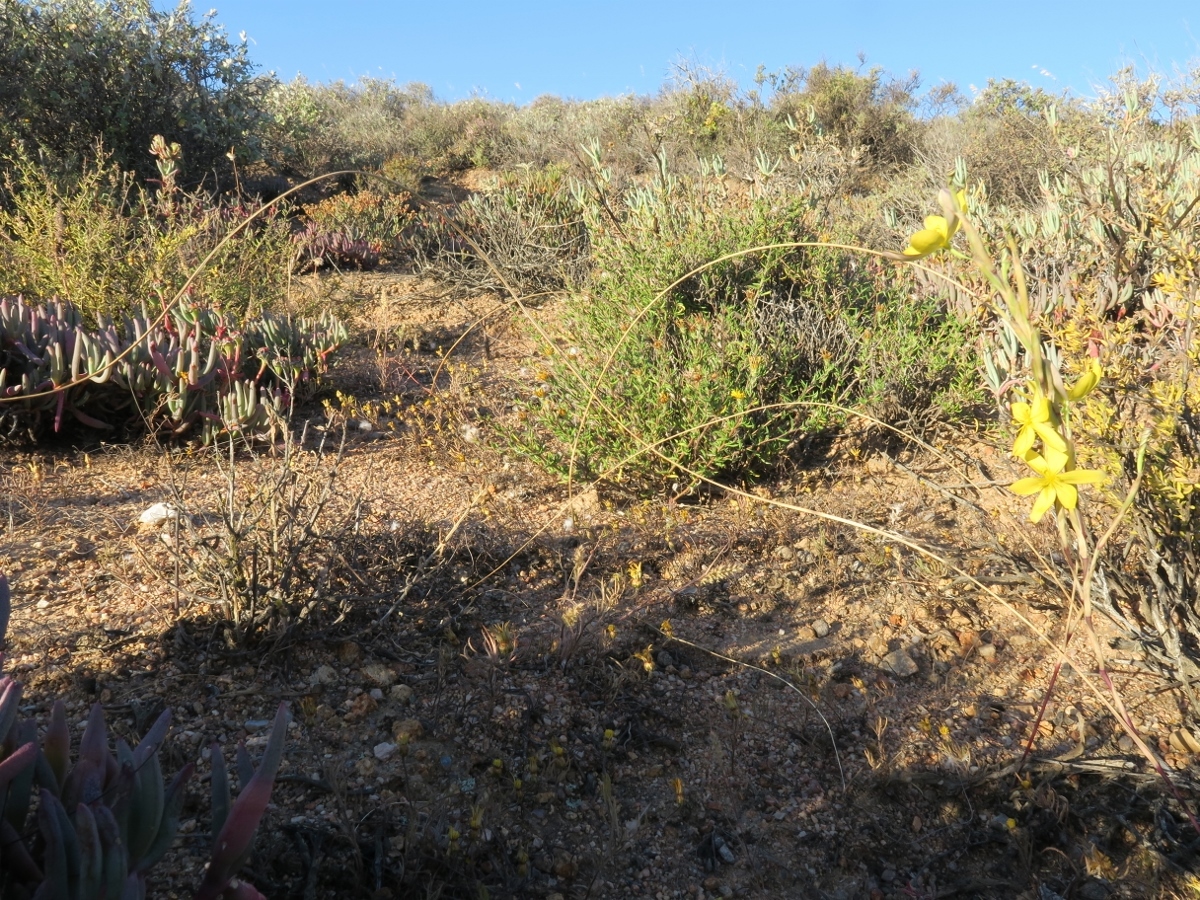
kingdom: Plantae
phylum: Tracheophyta
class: Liliopsida
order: Asparagales
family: Iridaceae
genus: Moraea
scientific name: Moraea lewisiae
